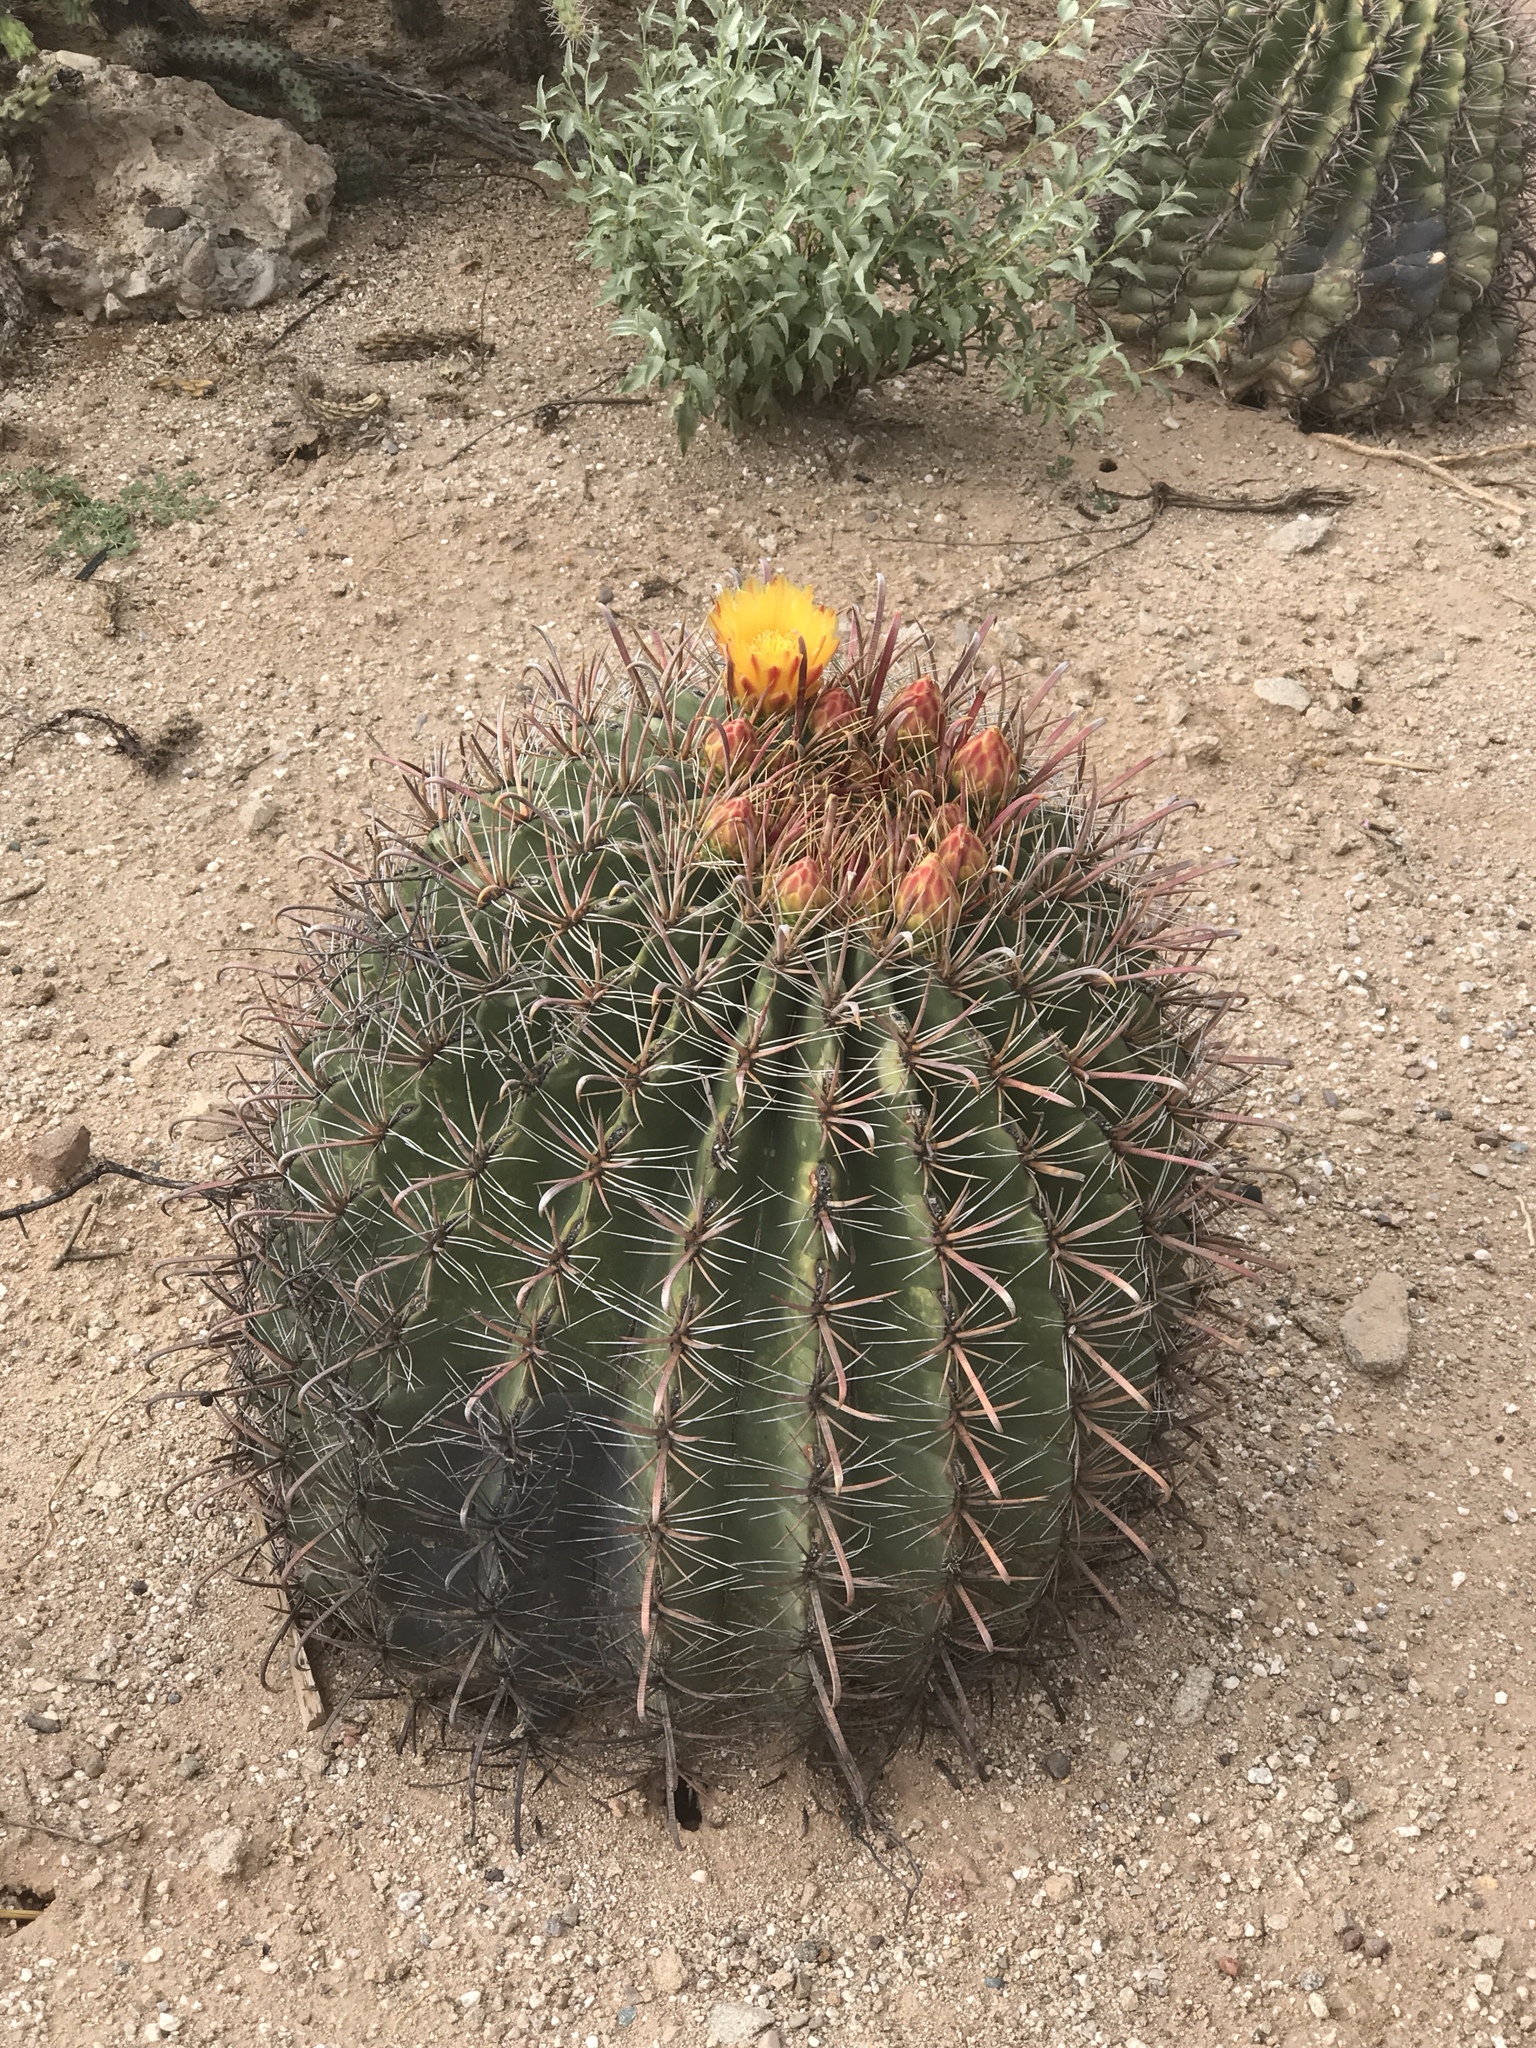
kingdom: Plantae
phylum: Tracheophyta
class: Magnoliopsida
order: Caryophyllales
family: Cactaceae
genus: Ferocactus
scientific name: Ferocactus wislizeni
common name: Candy barrel cactus
